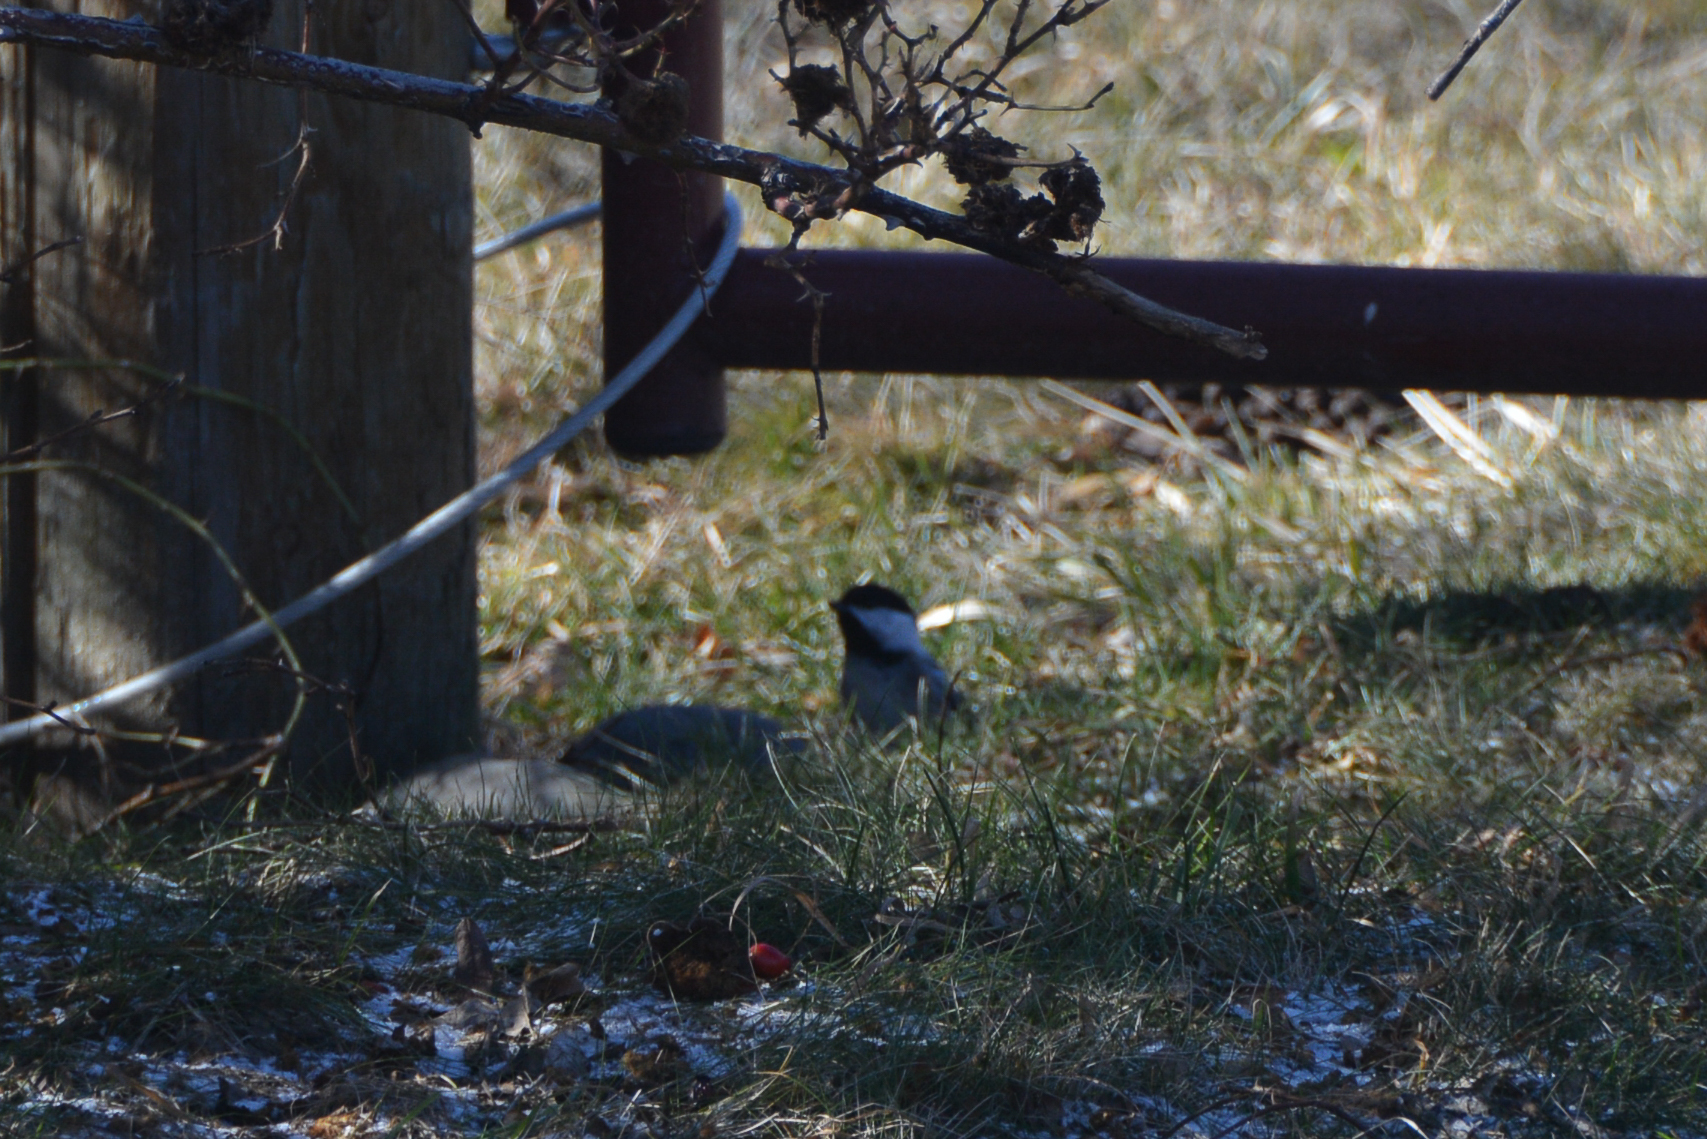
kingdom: Animalia
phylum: Chordata
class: Aves
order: Passeriformes
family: Paridae
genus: Poecile
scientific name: Poecile atricapillus
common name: Black-capped chickadee
